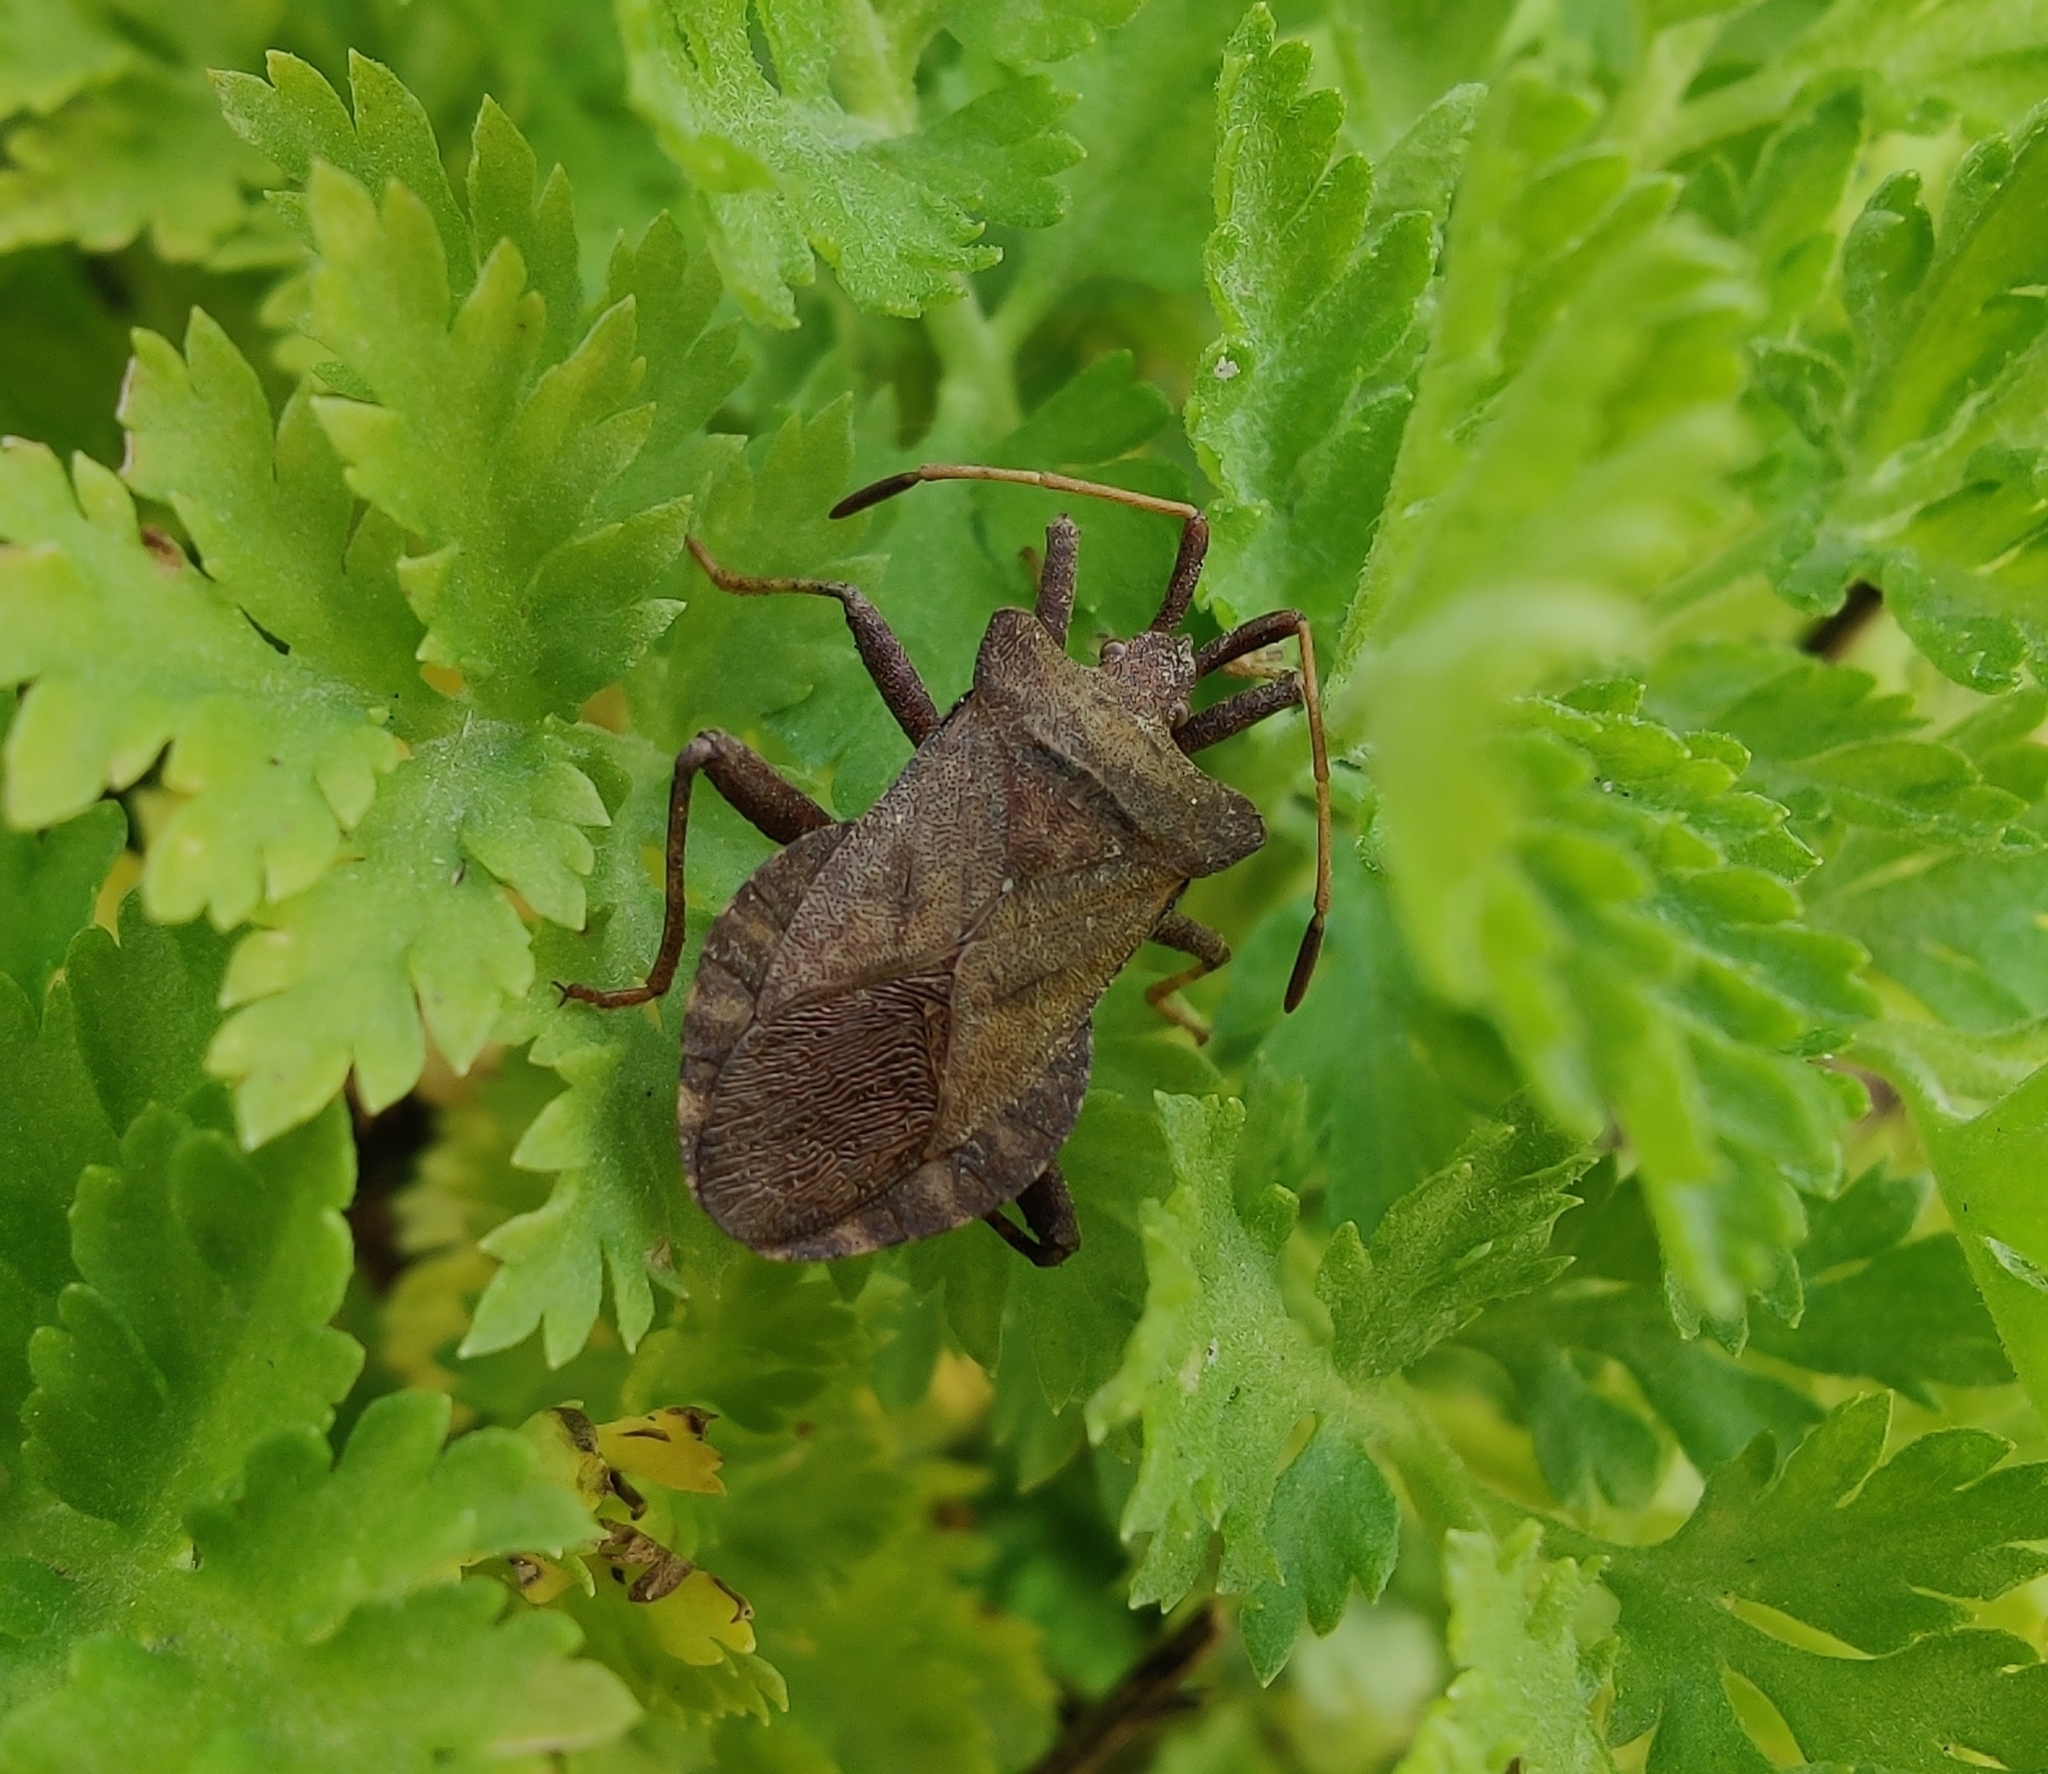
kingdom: Animalia
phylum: Arthropoda
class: Insecta
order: Hemiptera
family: Coreidae
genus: Coreus
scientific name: Coreus marginatus
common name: Dock bug
